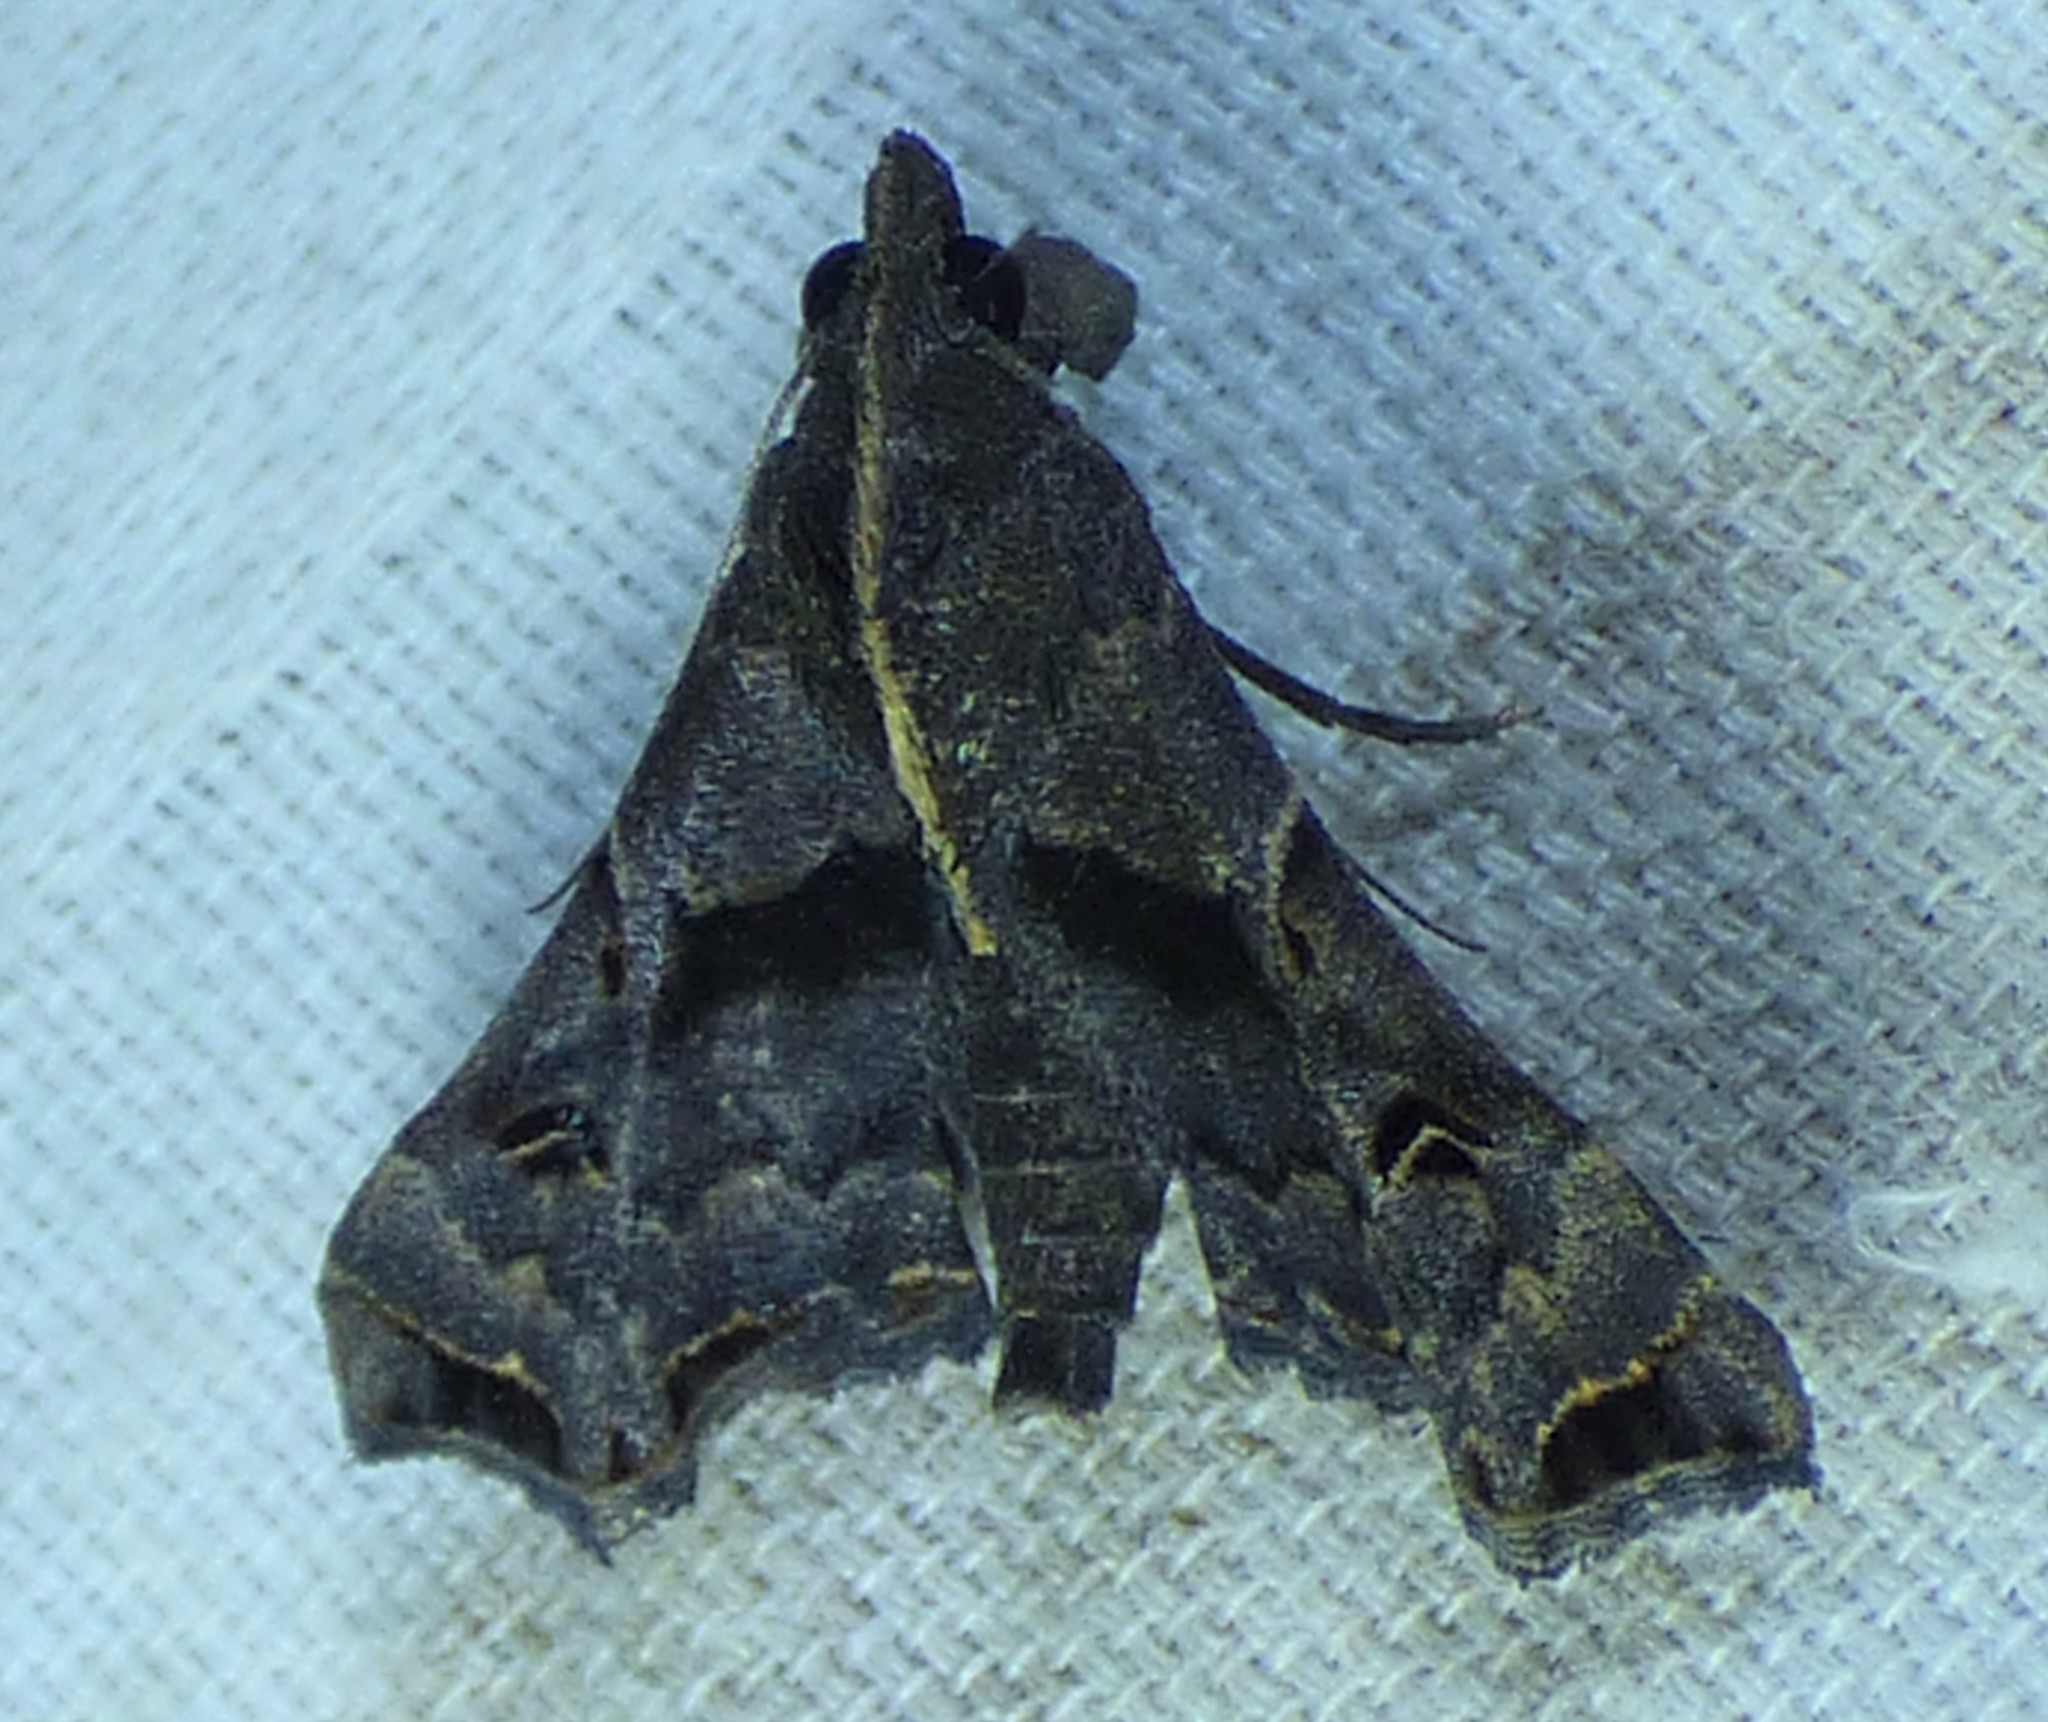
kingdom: Animalia
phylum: Arthropoda
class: Insecta
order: Lepidoptera
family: Erebidae
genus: Palthis
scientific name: Palthis asopialis
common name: Faint-spotted palthis moth
